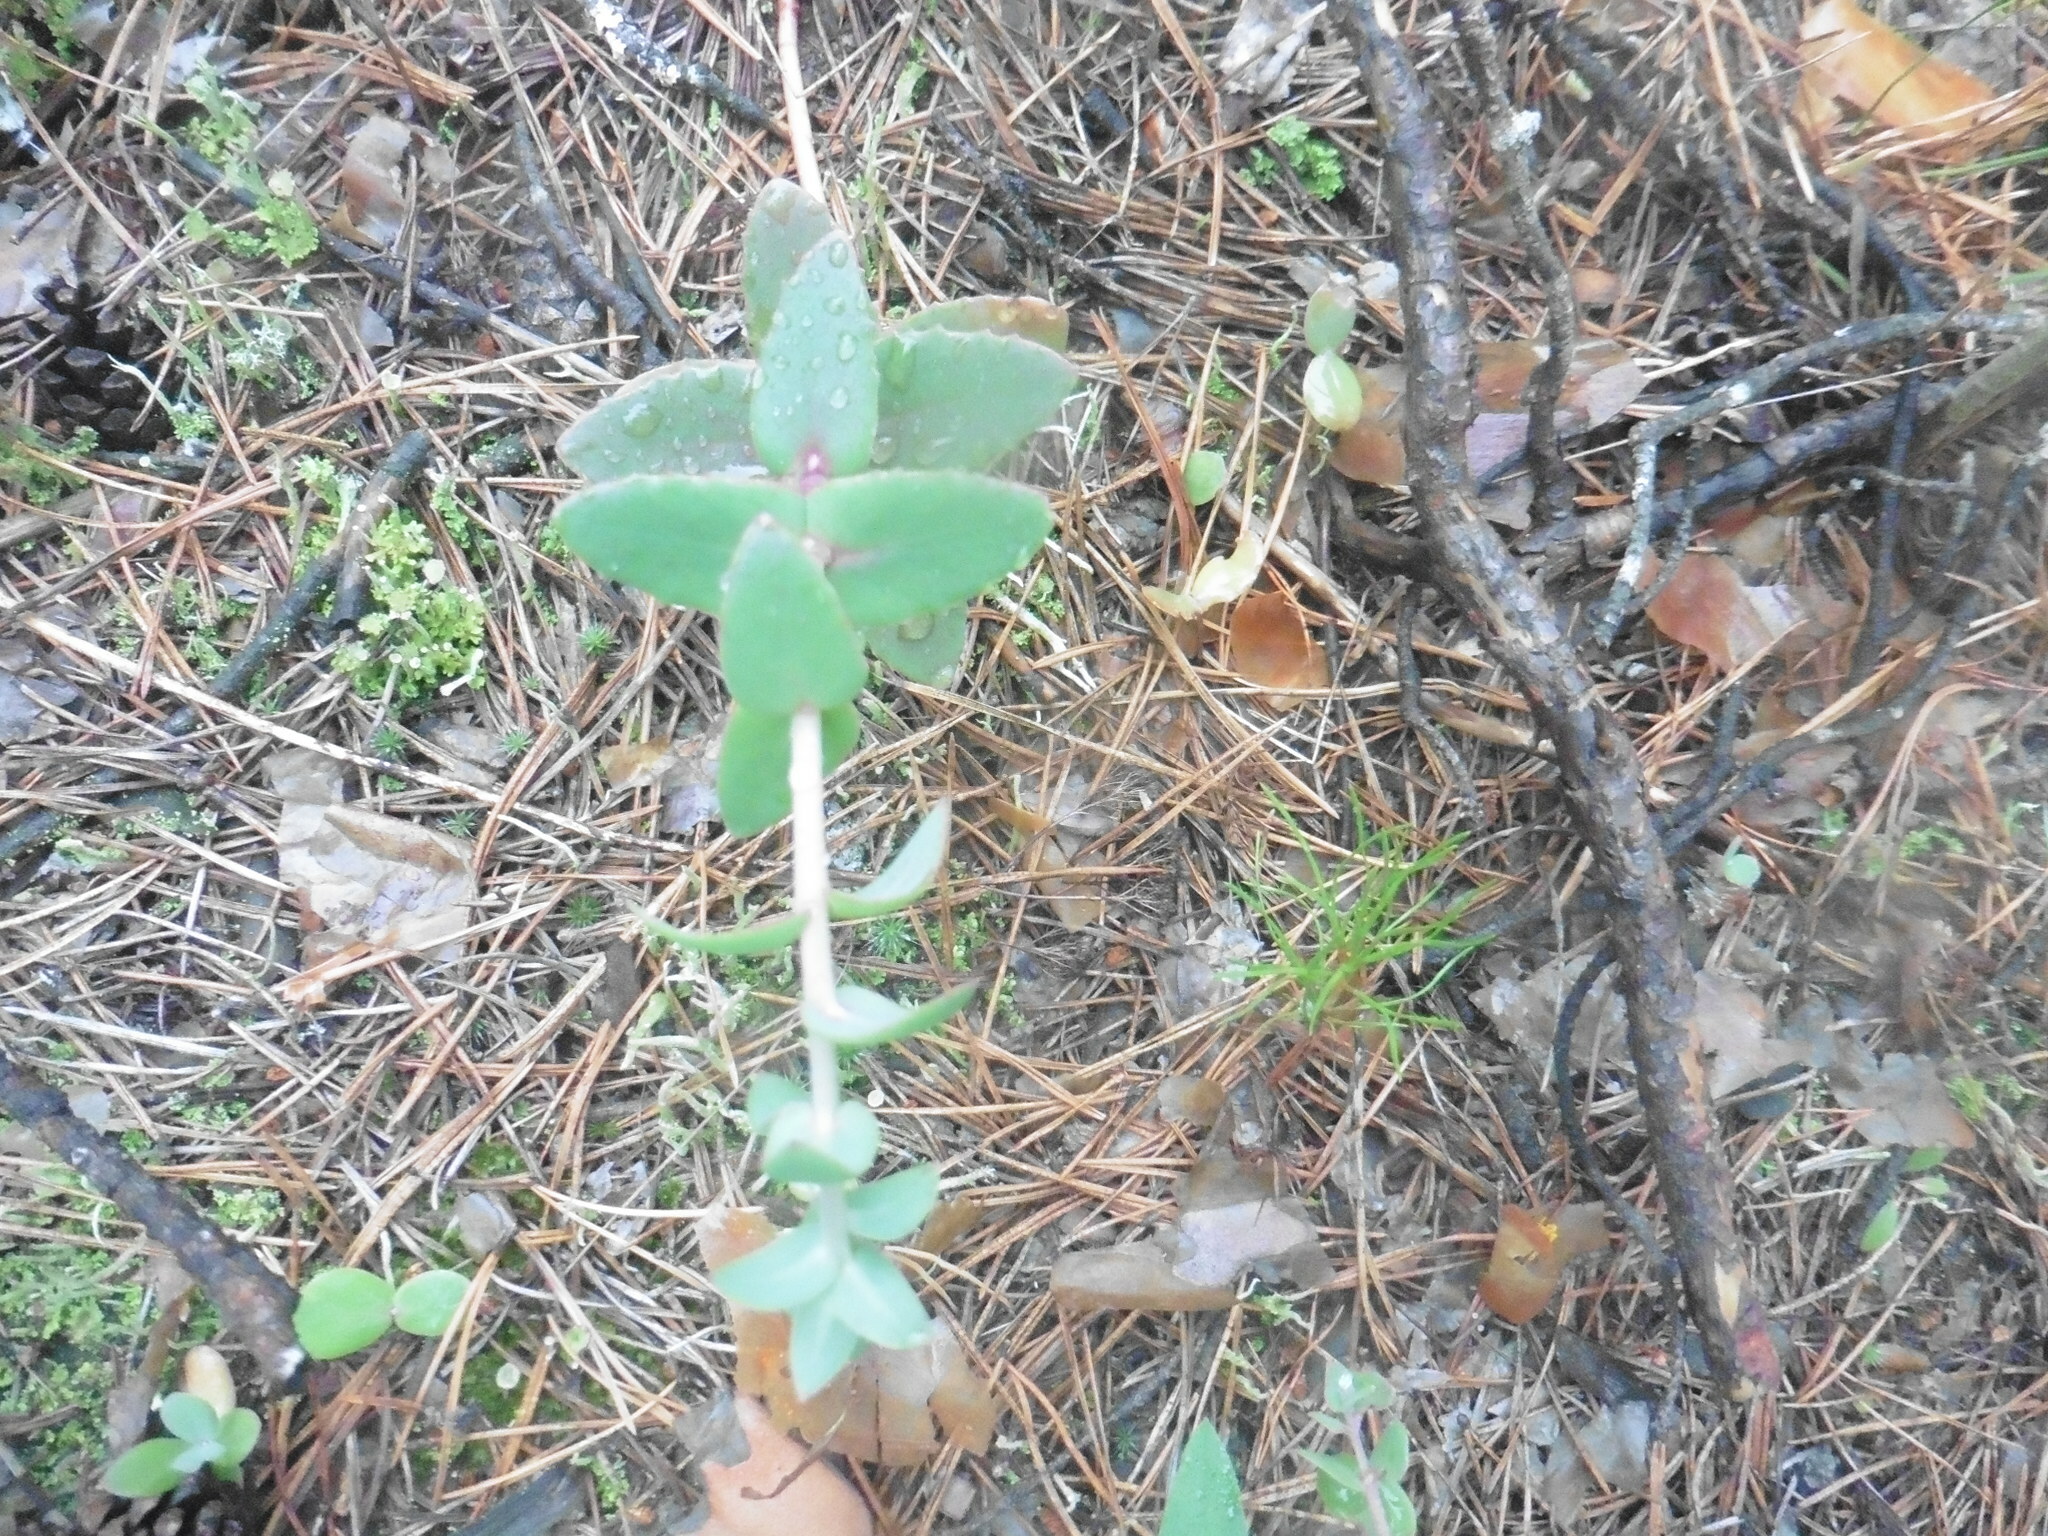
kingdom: Plantae
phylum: Tracheophyta
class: Magnoliopsida
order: Saxifragales
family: Crassulaceae
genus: Hylotelephium
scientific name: Hylotelephium maximum
